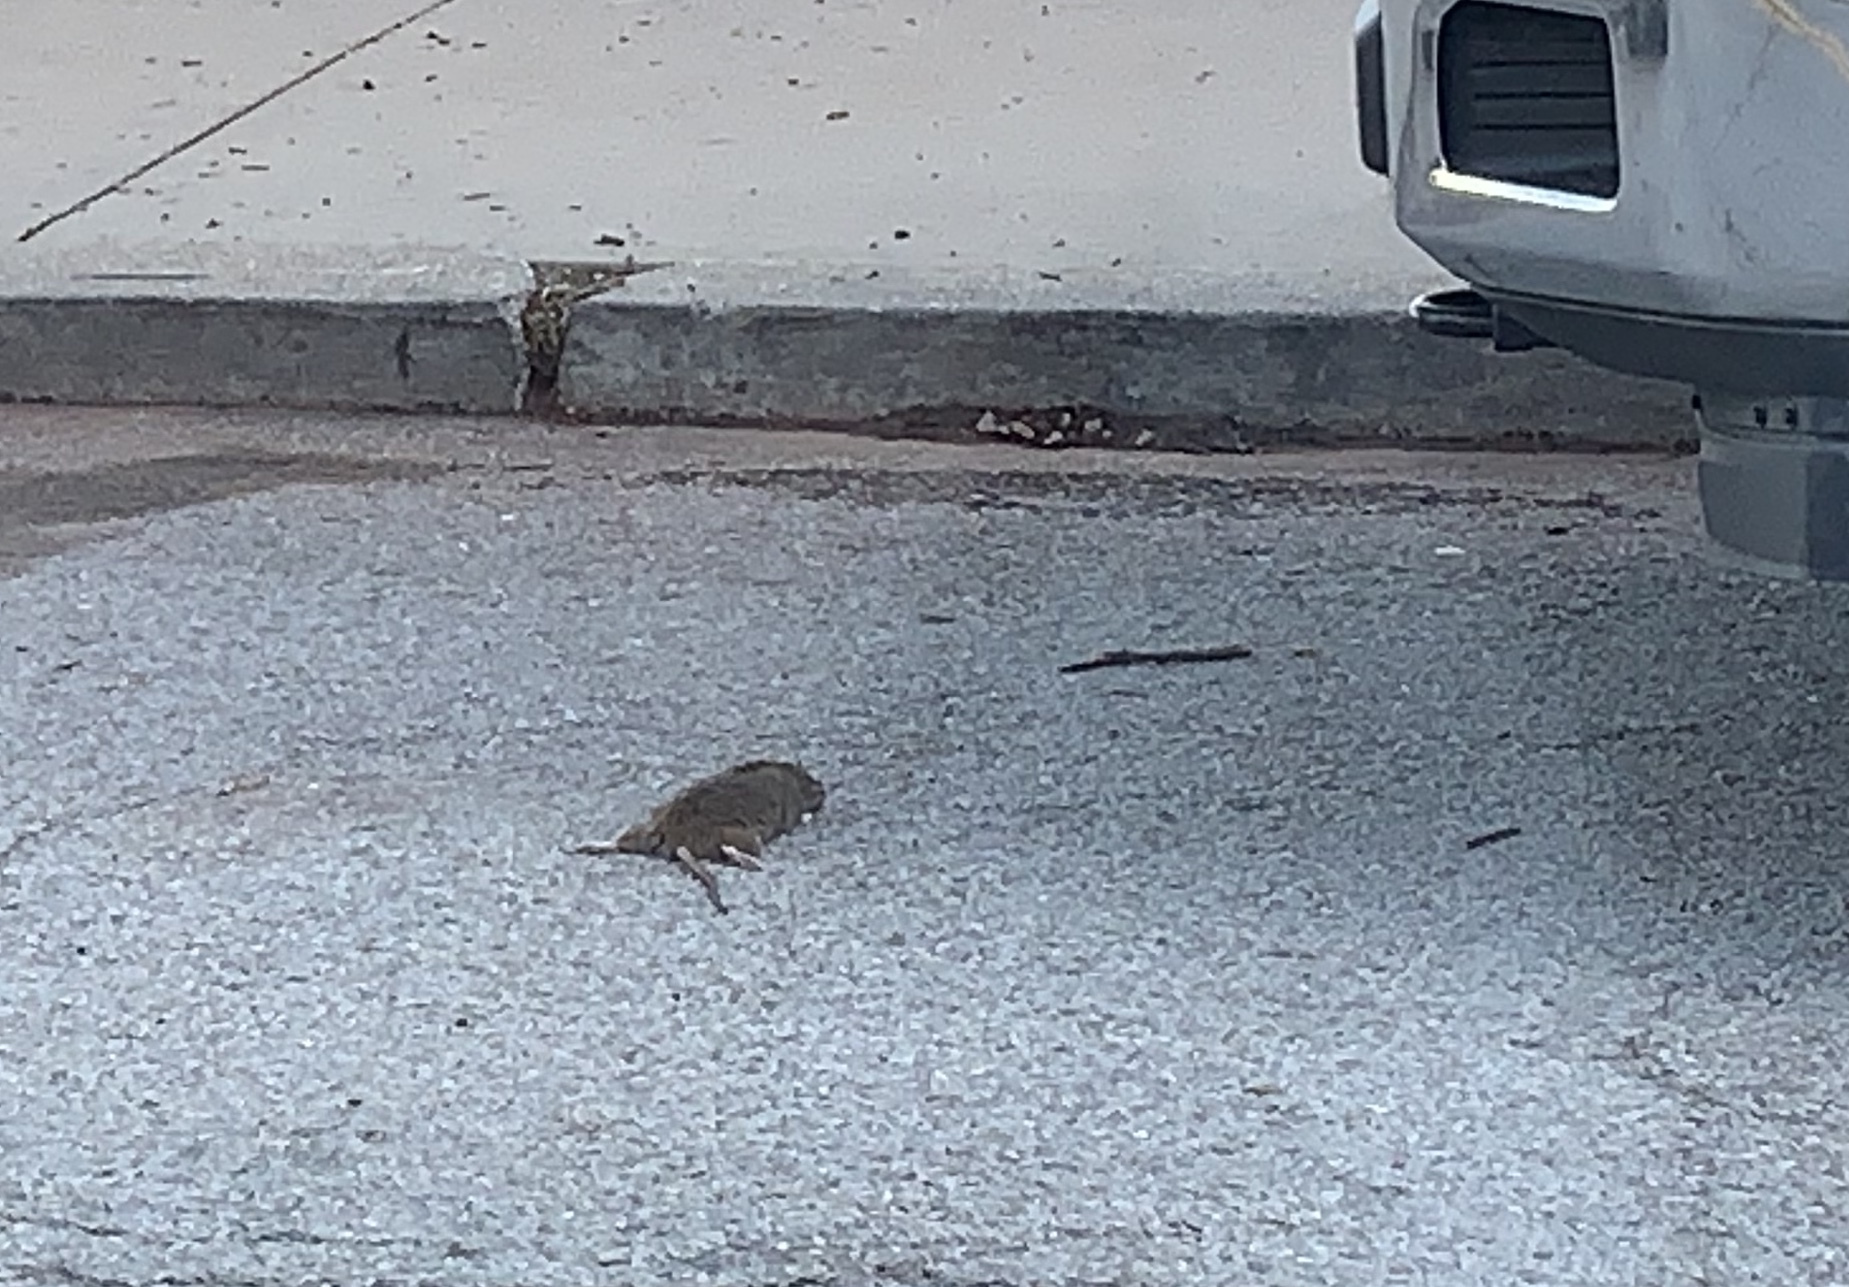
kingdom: Animalia
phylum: Chordata
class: Mammalia
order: Rodentia
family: Muridae
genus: Rattus
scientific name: Rattus norvegicus
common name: Brown rat
